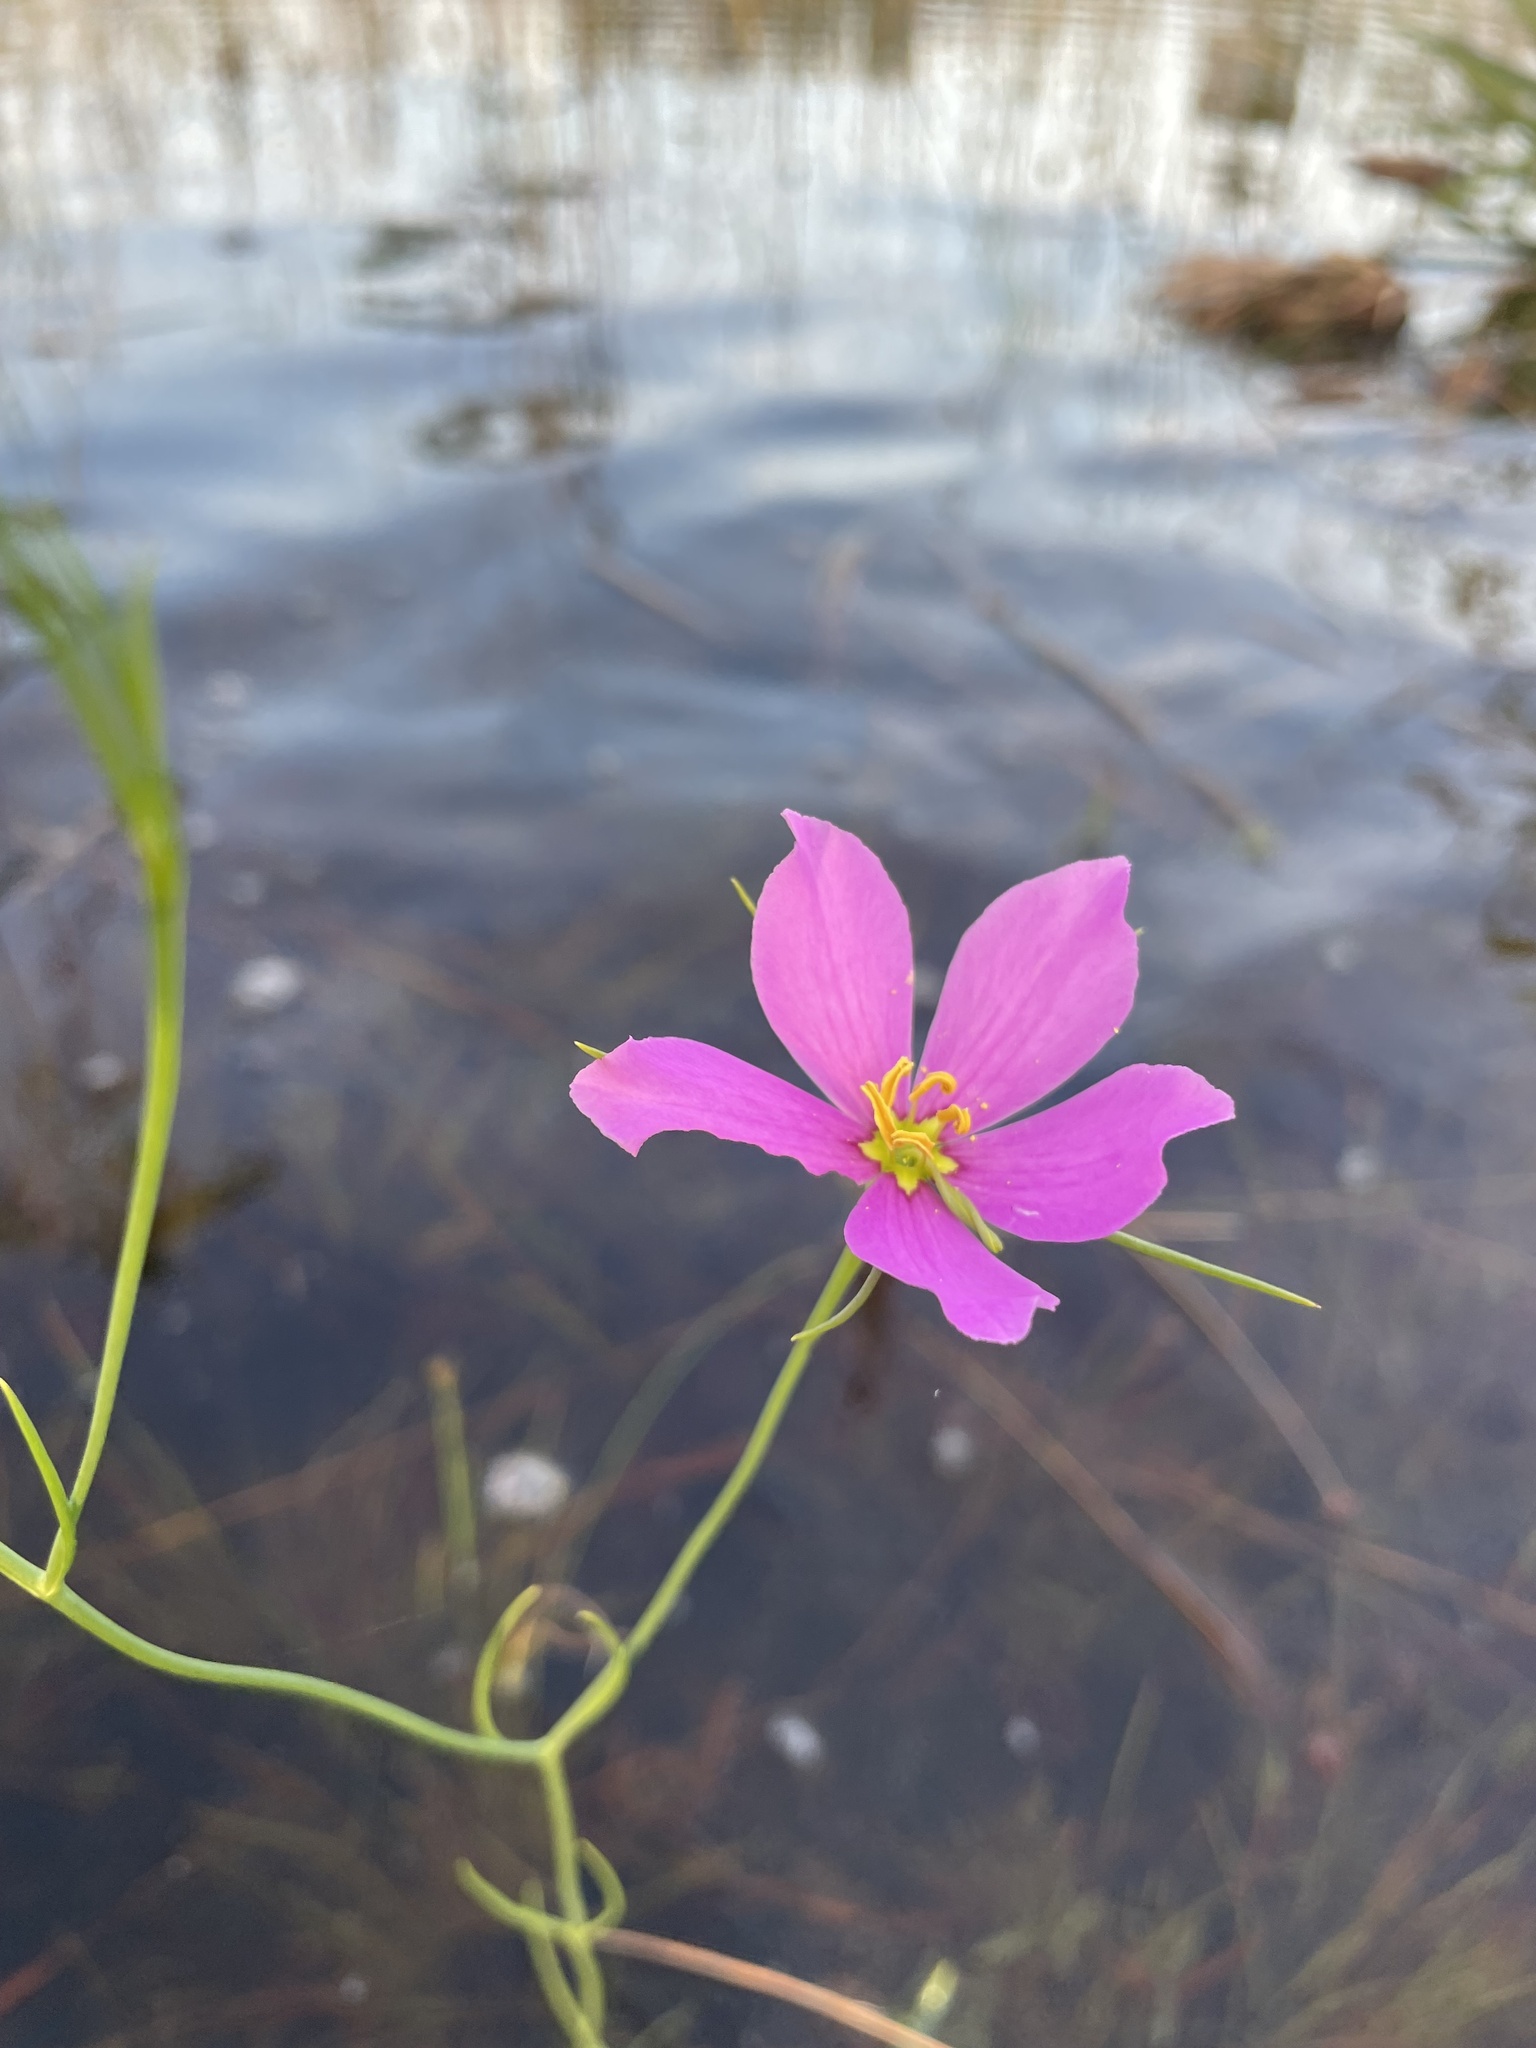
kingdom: Plantae
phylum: Tracheophyta
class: Magnoliopsida
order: Gentianales
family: Gentianaceae
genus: Sabatia
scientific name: Sabatia grandiflora
